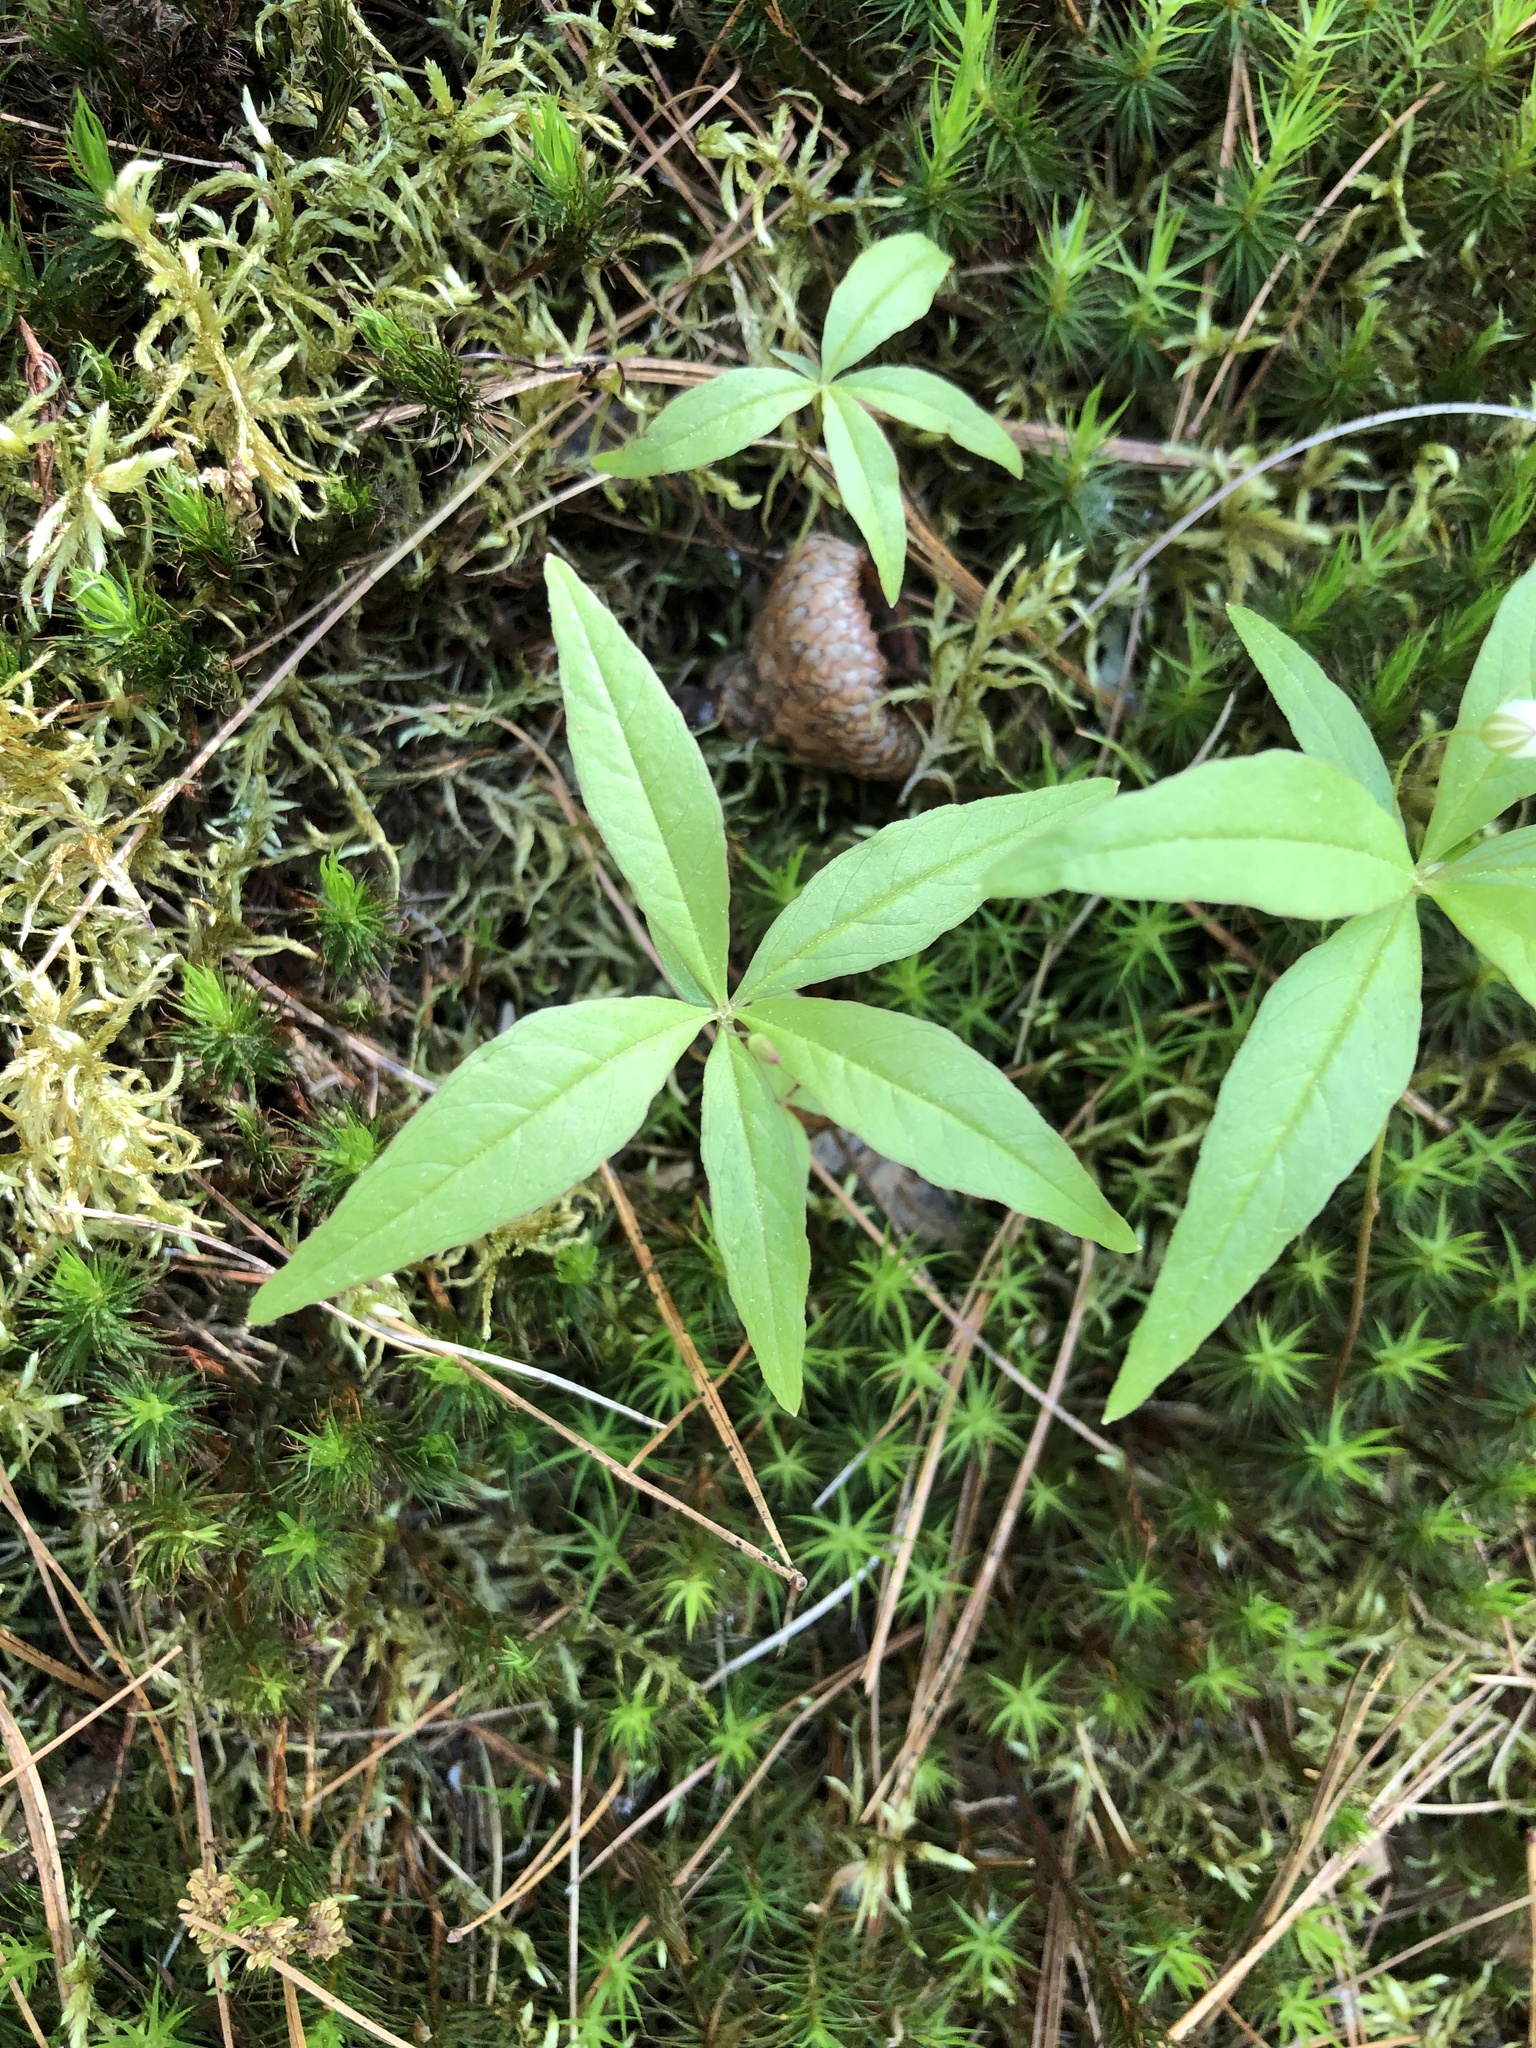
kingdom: Plantae
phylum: Tracheophyta
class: Magnoliopsida
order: Ericales
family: Primulaceae
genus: Lysimachia
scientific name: Lysimachia borealis
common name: American starflower
